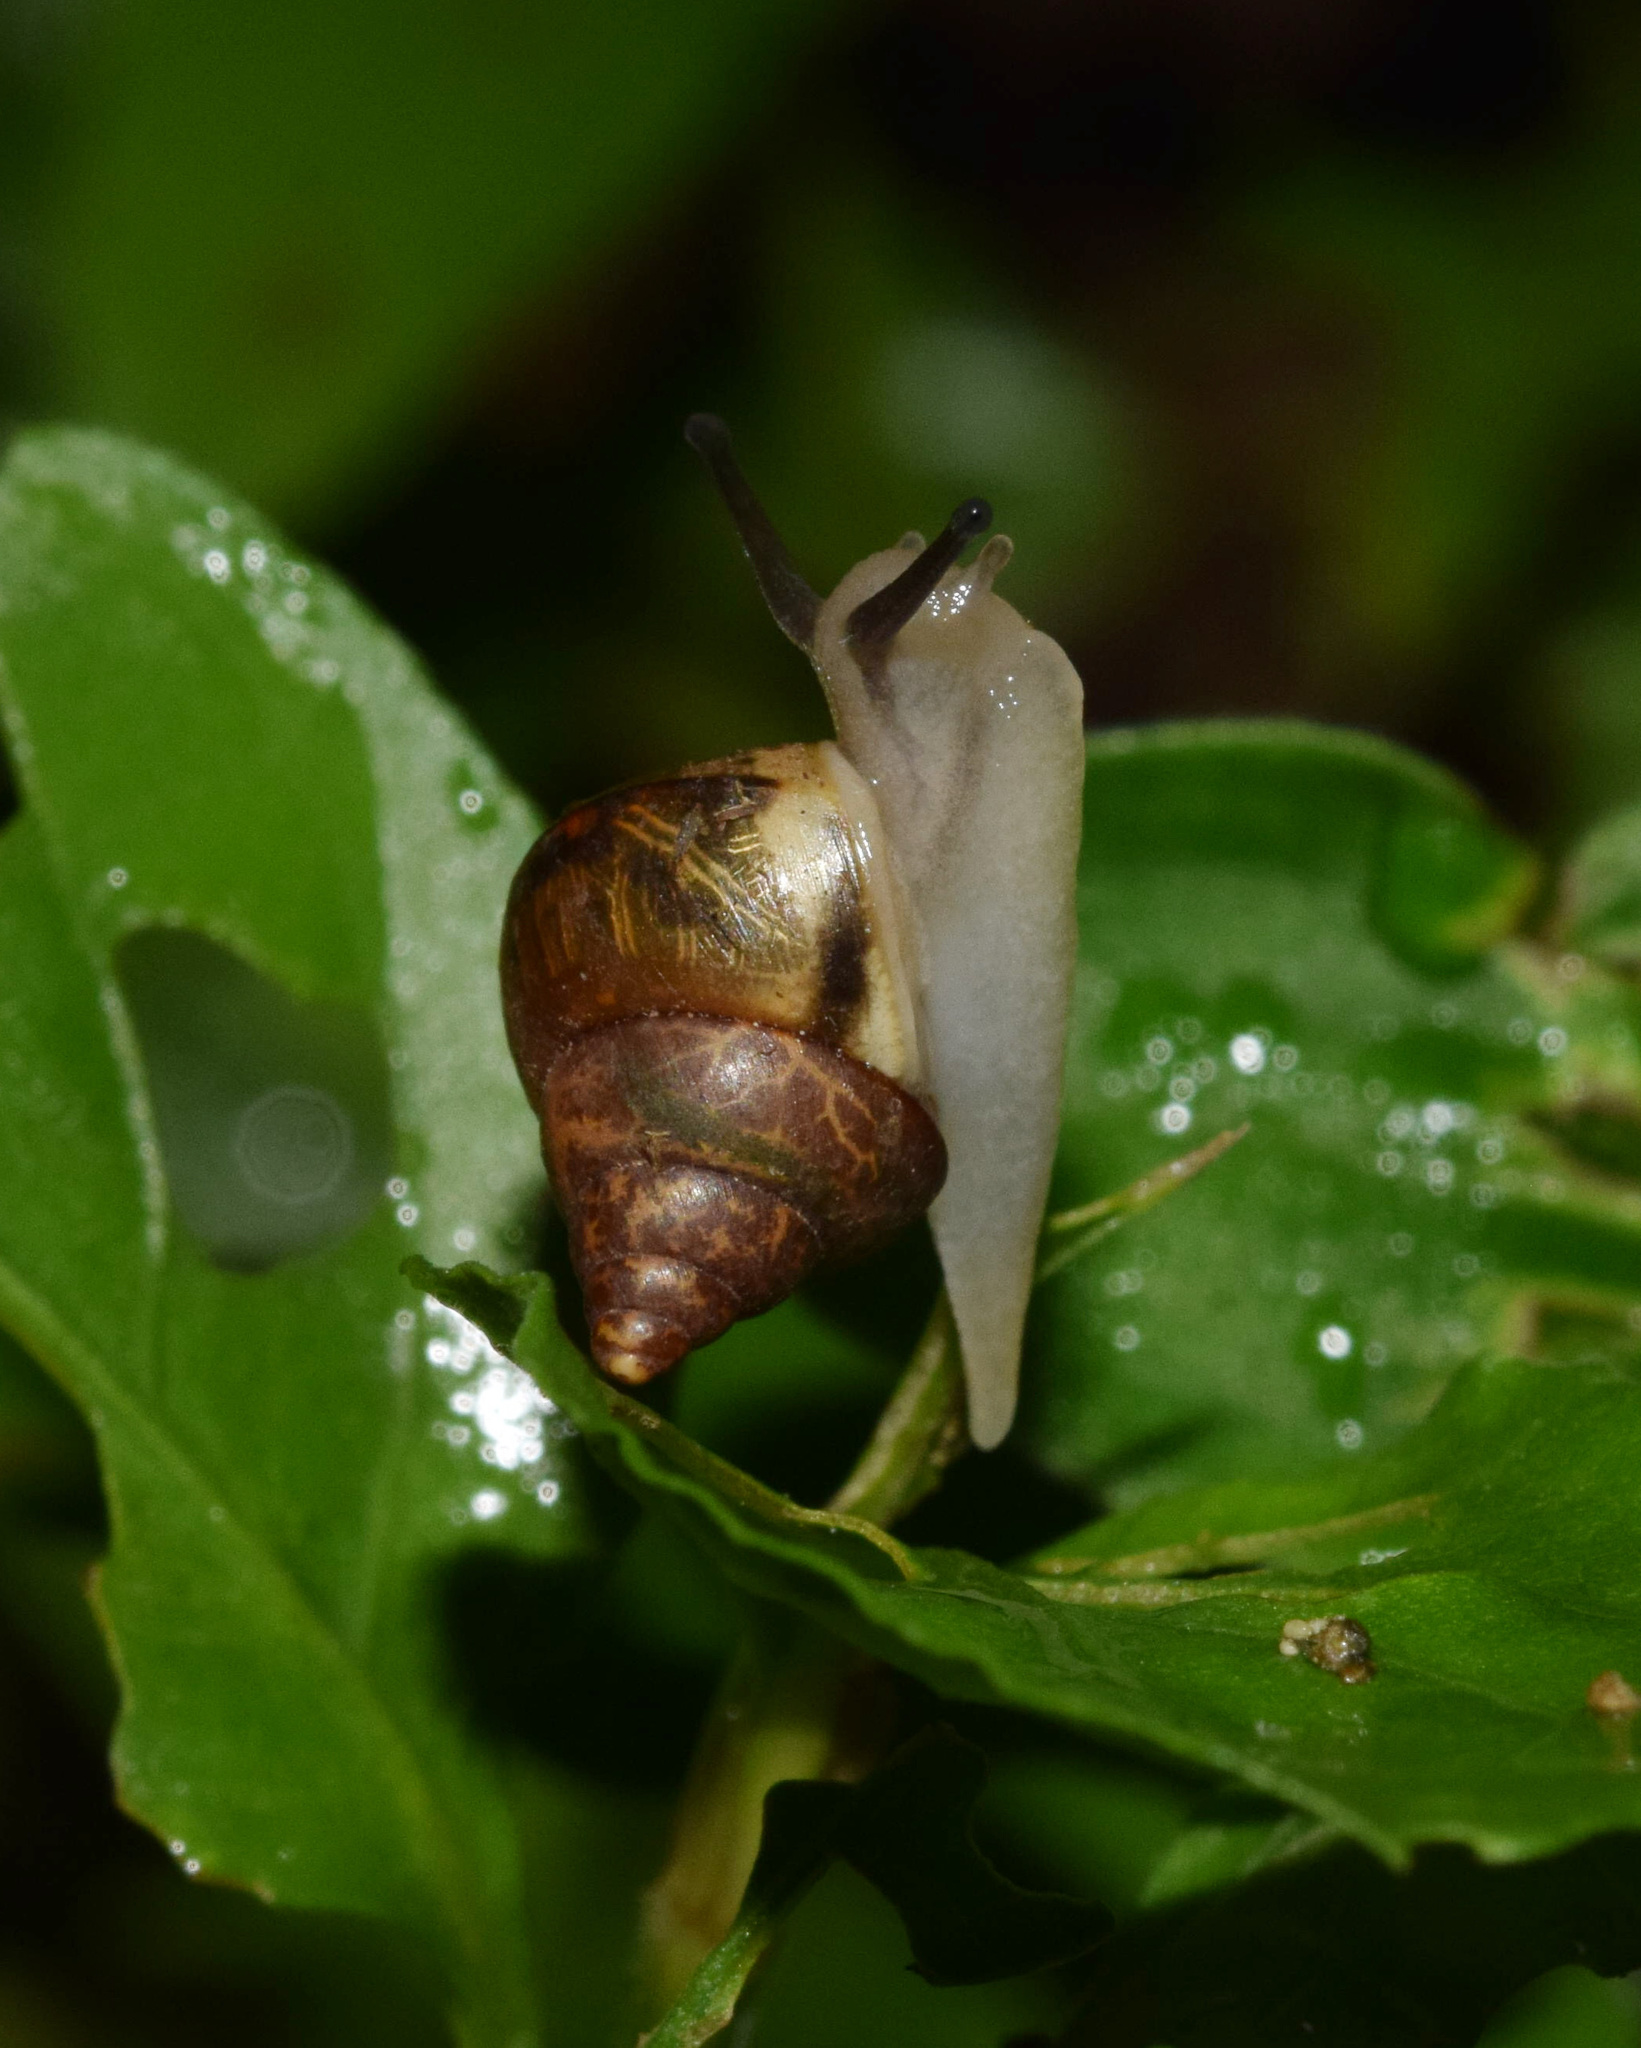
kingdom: Animalia
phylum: Mollusca
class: Gastropoda
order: Stylommatophora
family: Cerastidae
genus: Gittenedouardia
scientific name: Gittenedouardia natalensis
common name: Common bark snail
